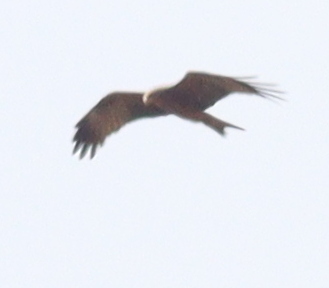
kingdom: Animalia
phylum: Chordata
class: Aves
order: Accipitriformes
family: Accipitridae
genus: Milvus
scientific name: Milvus migrans
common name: Black kite
